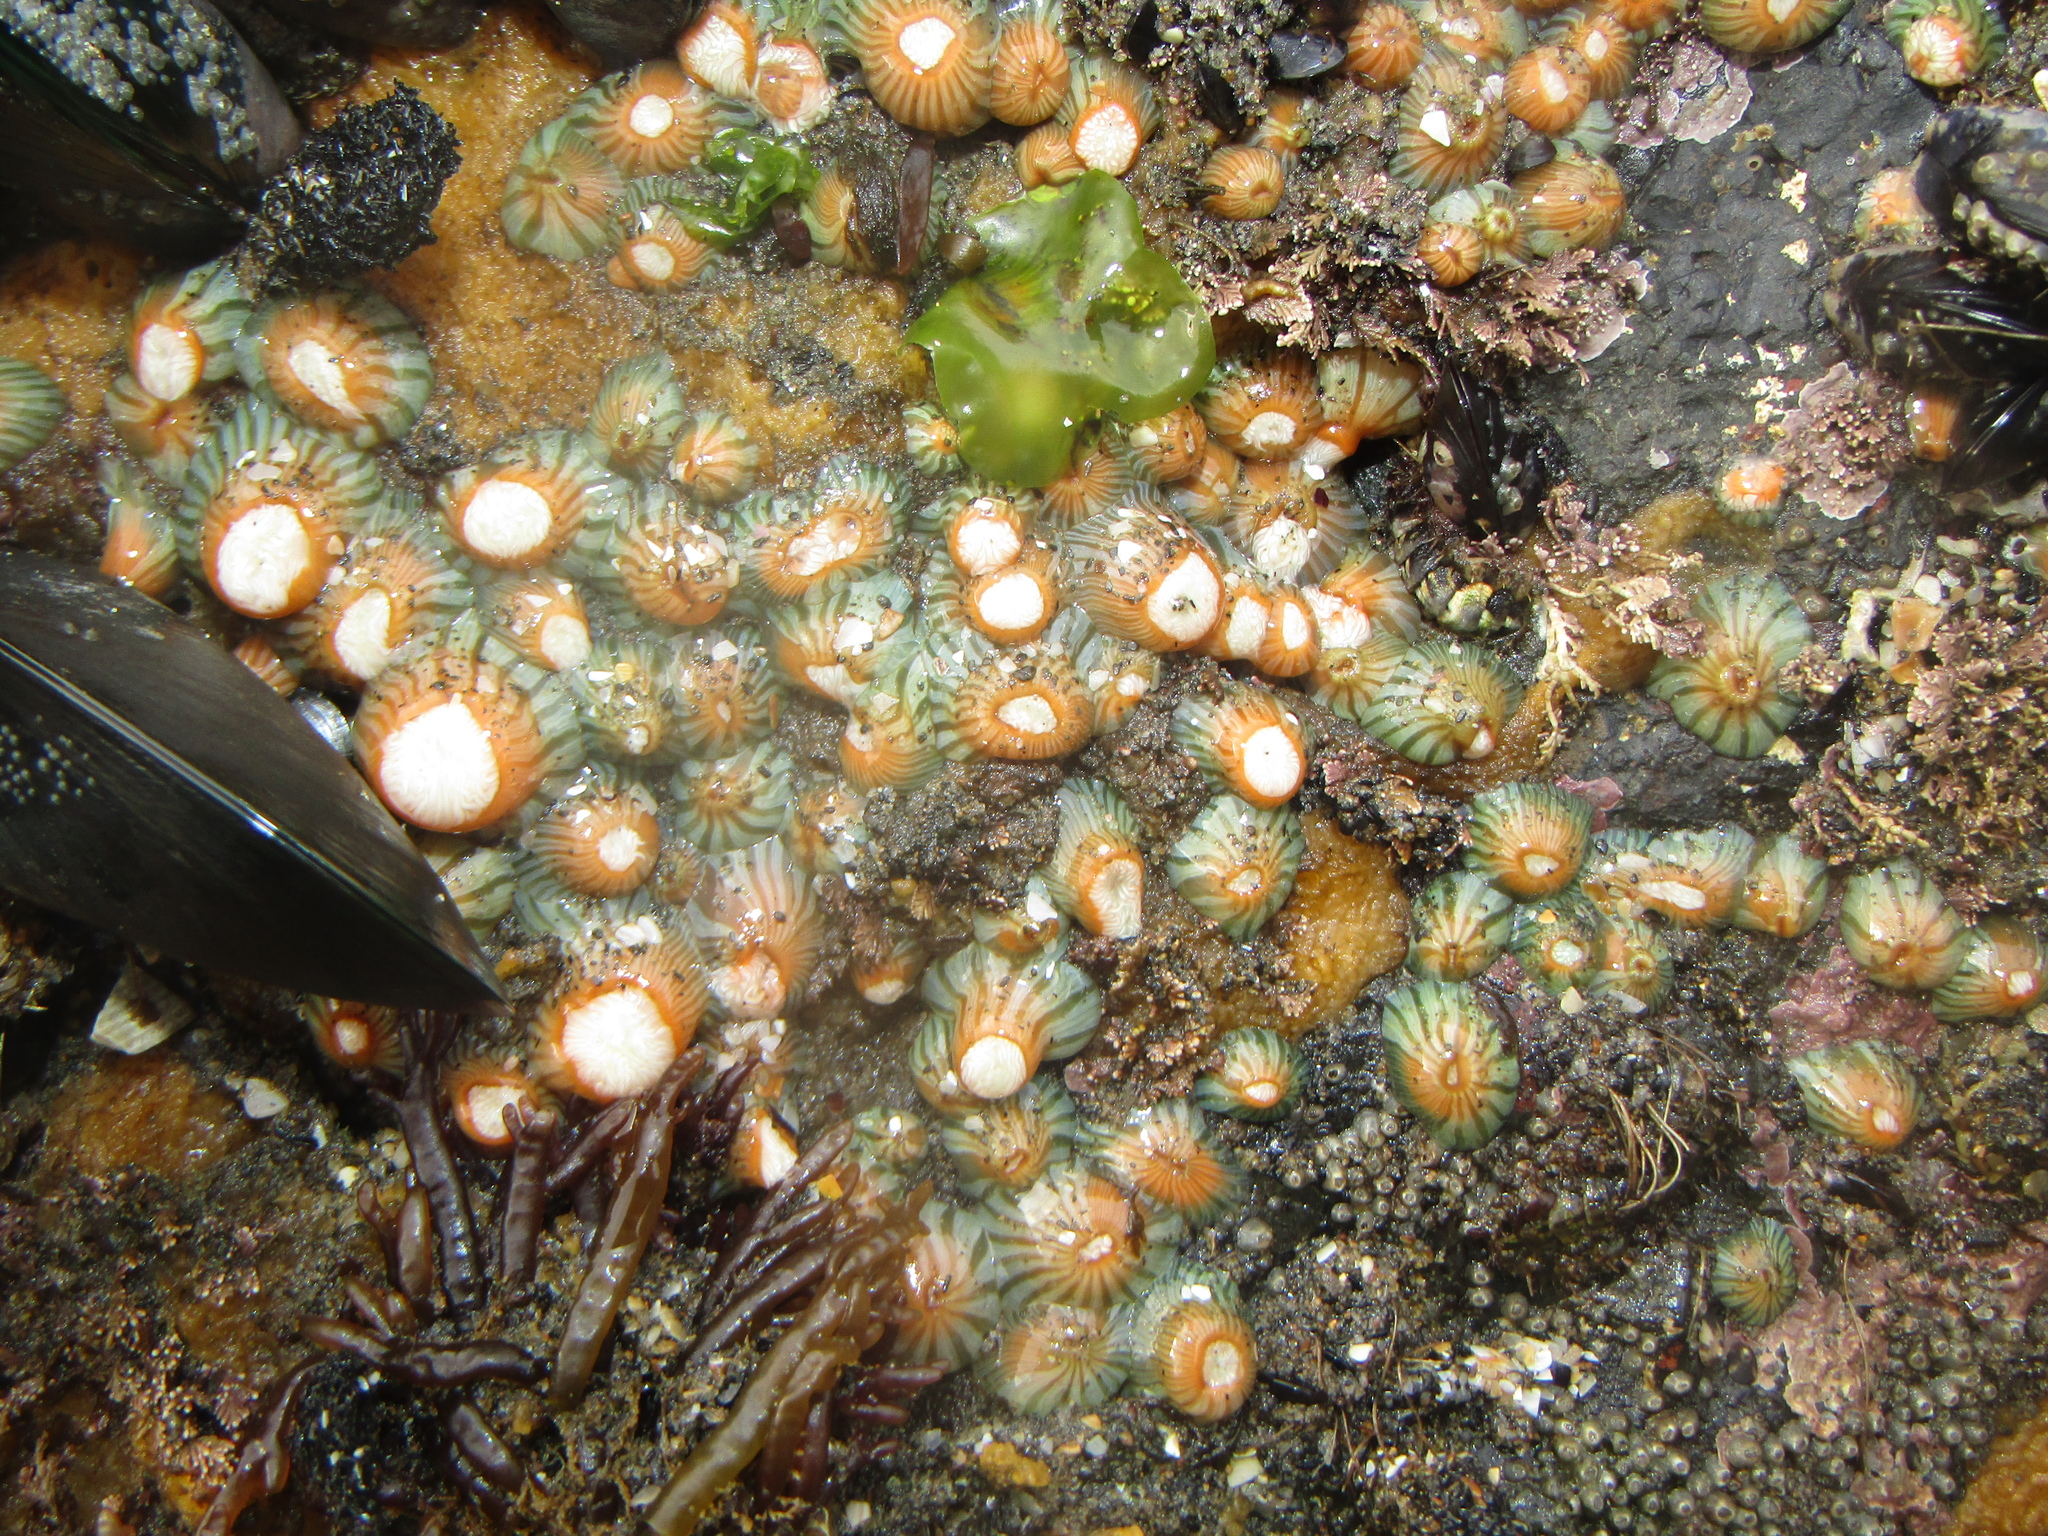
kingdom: Animalia
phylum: Cnidaria
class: Anthozoa
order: Actiniaria
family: Sagartiidae
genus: Anthothoe
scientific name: Anthothoe albocincta
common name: Orange striped anemone
